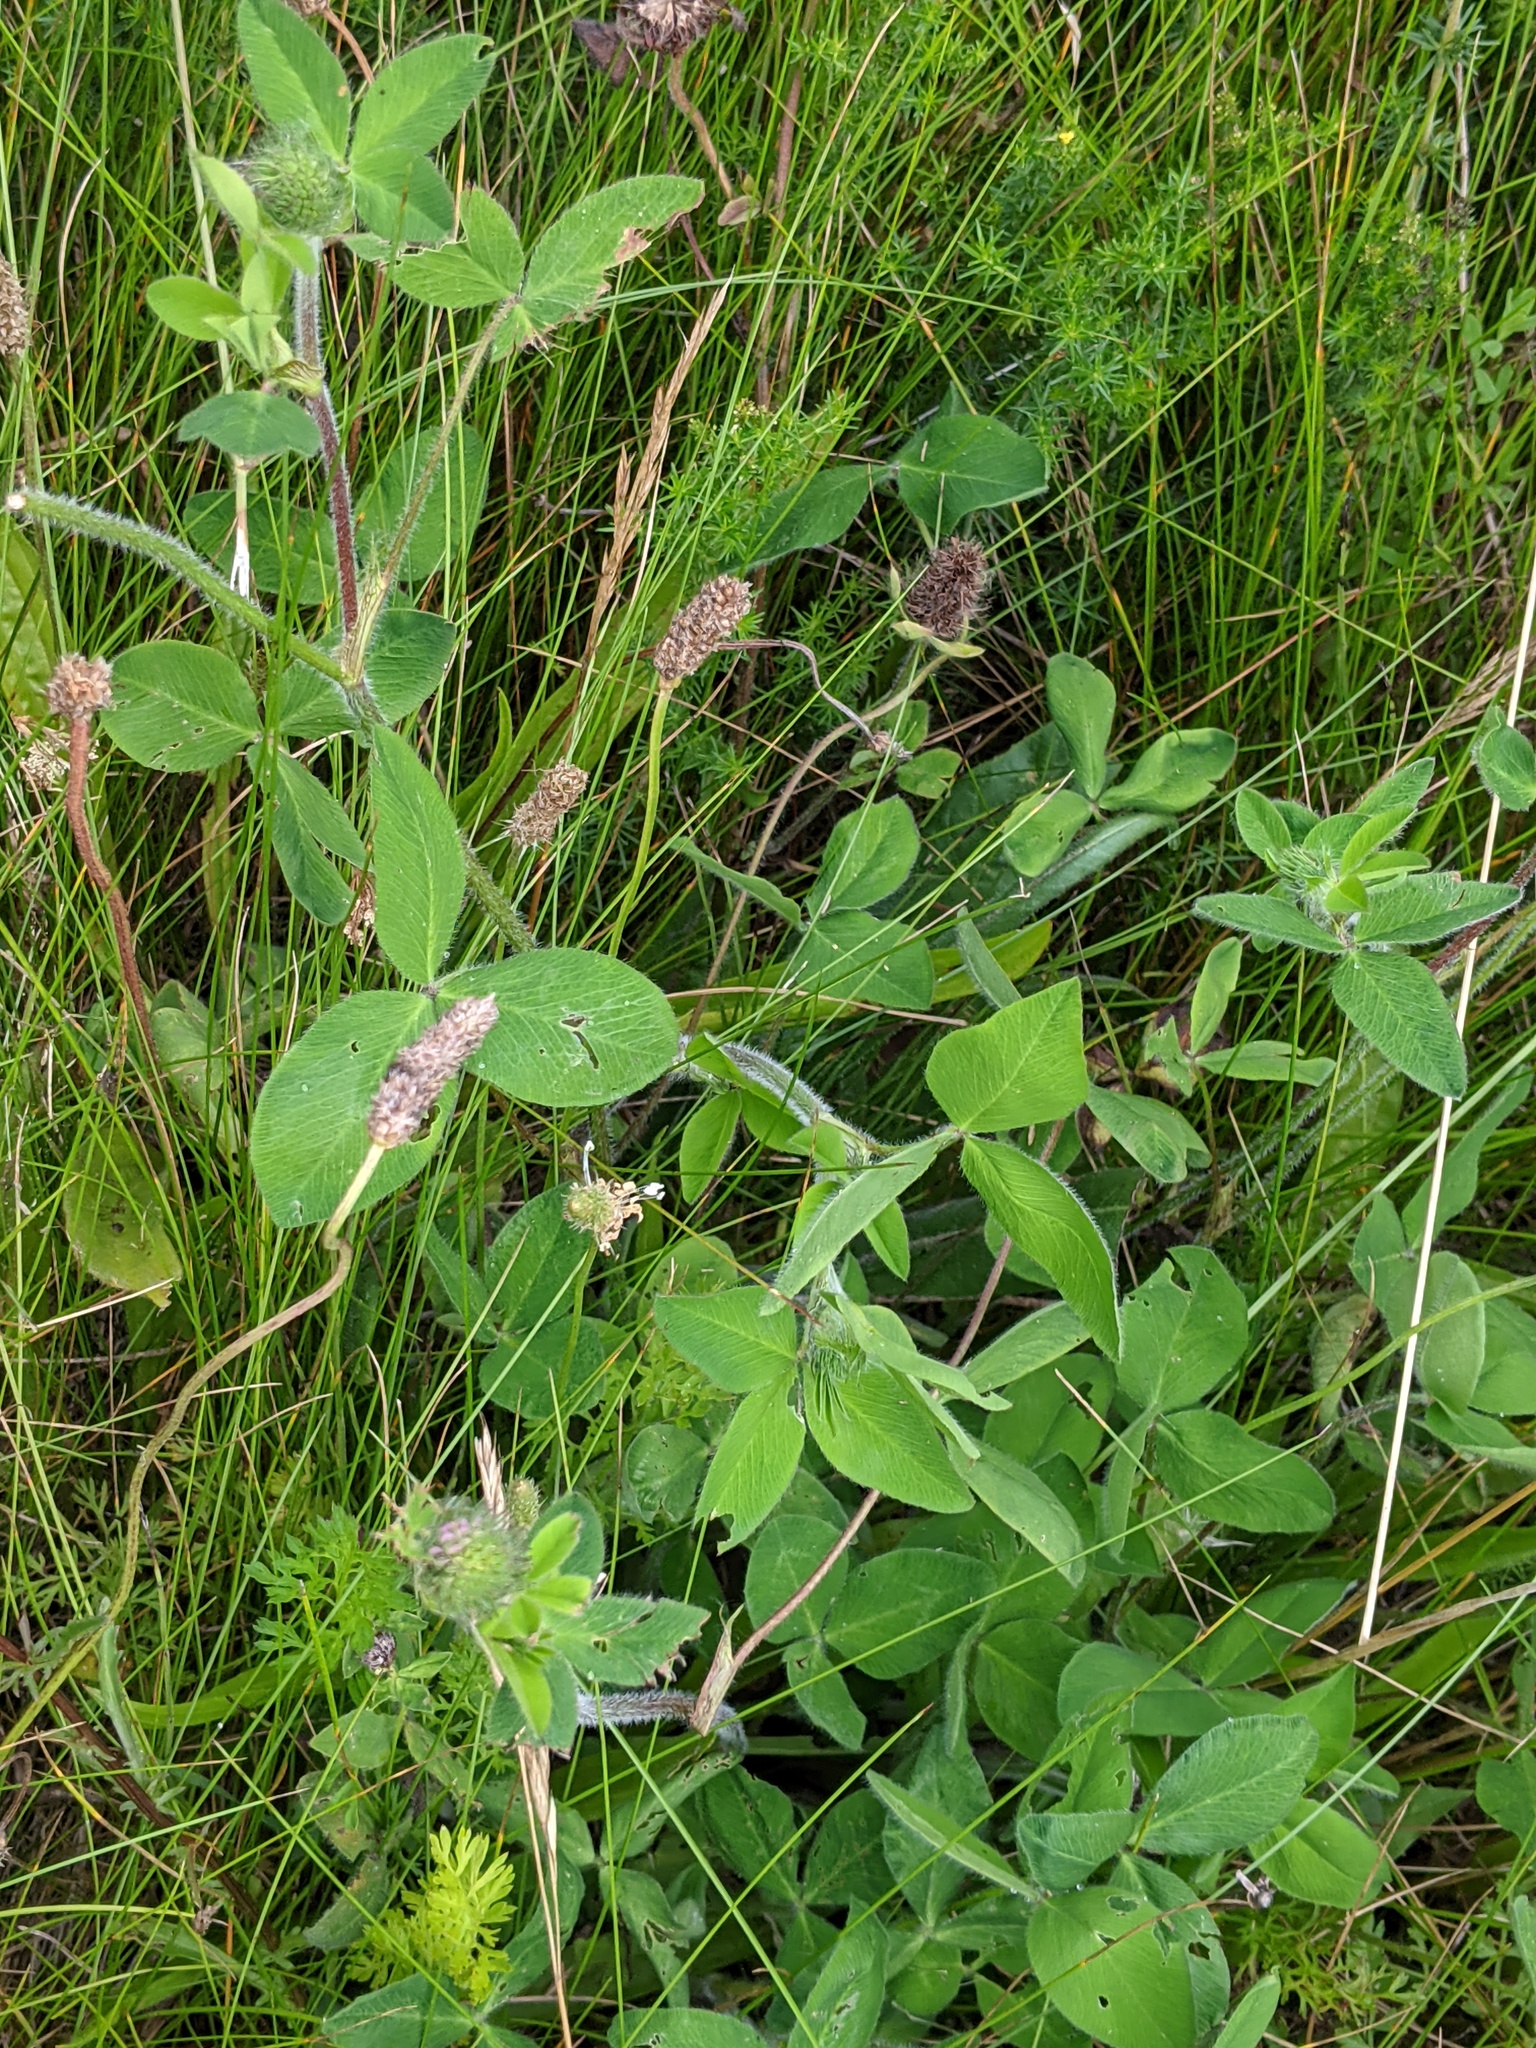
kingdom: Plantae
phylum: Tracheophyta
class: Magnoliopsida
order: Fabales
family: Fabaceae
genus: Trifolium
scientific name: Trifolium pratense
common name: Red clover
